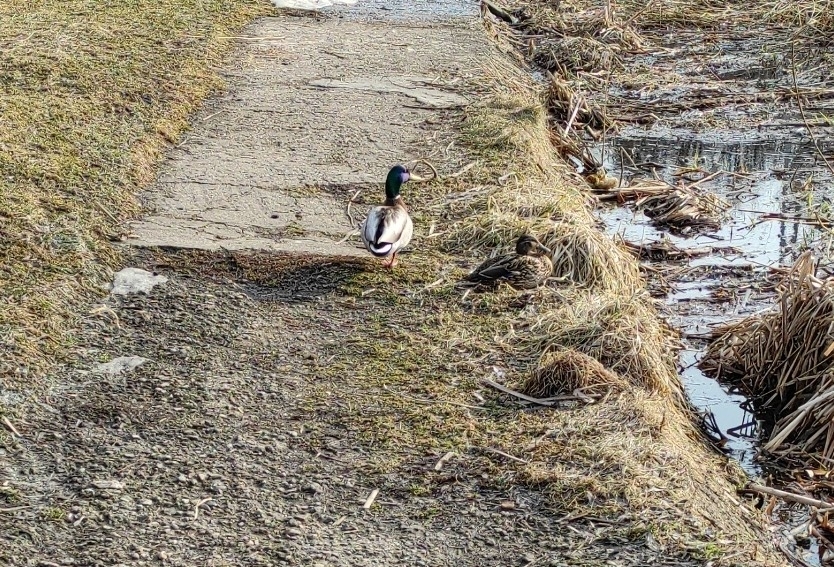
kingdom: Animalia
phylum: Chordata
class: Aves
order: Anseriformes
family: Anatidae
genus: Anas
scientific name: Anas platyrhynchos
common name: Mallard
